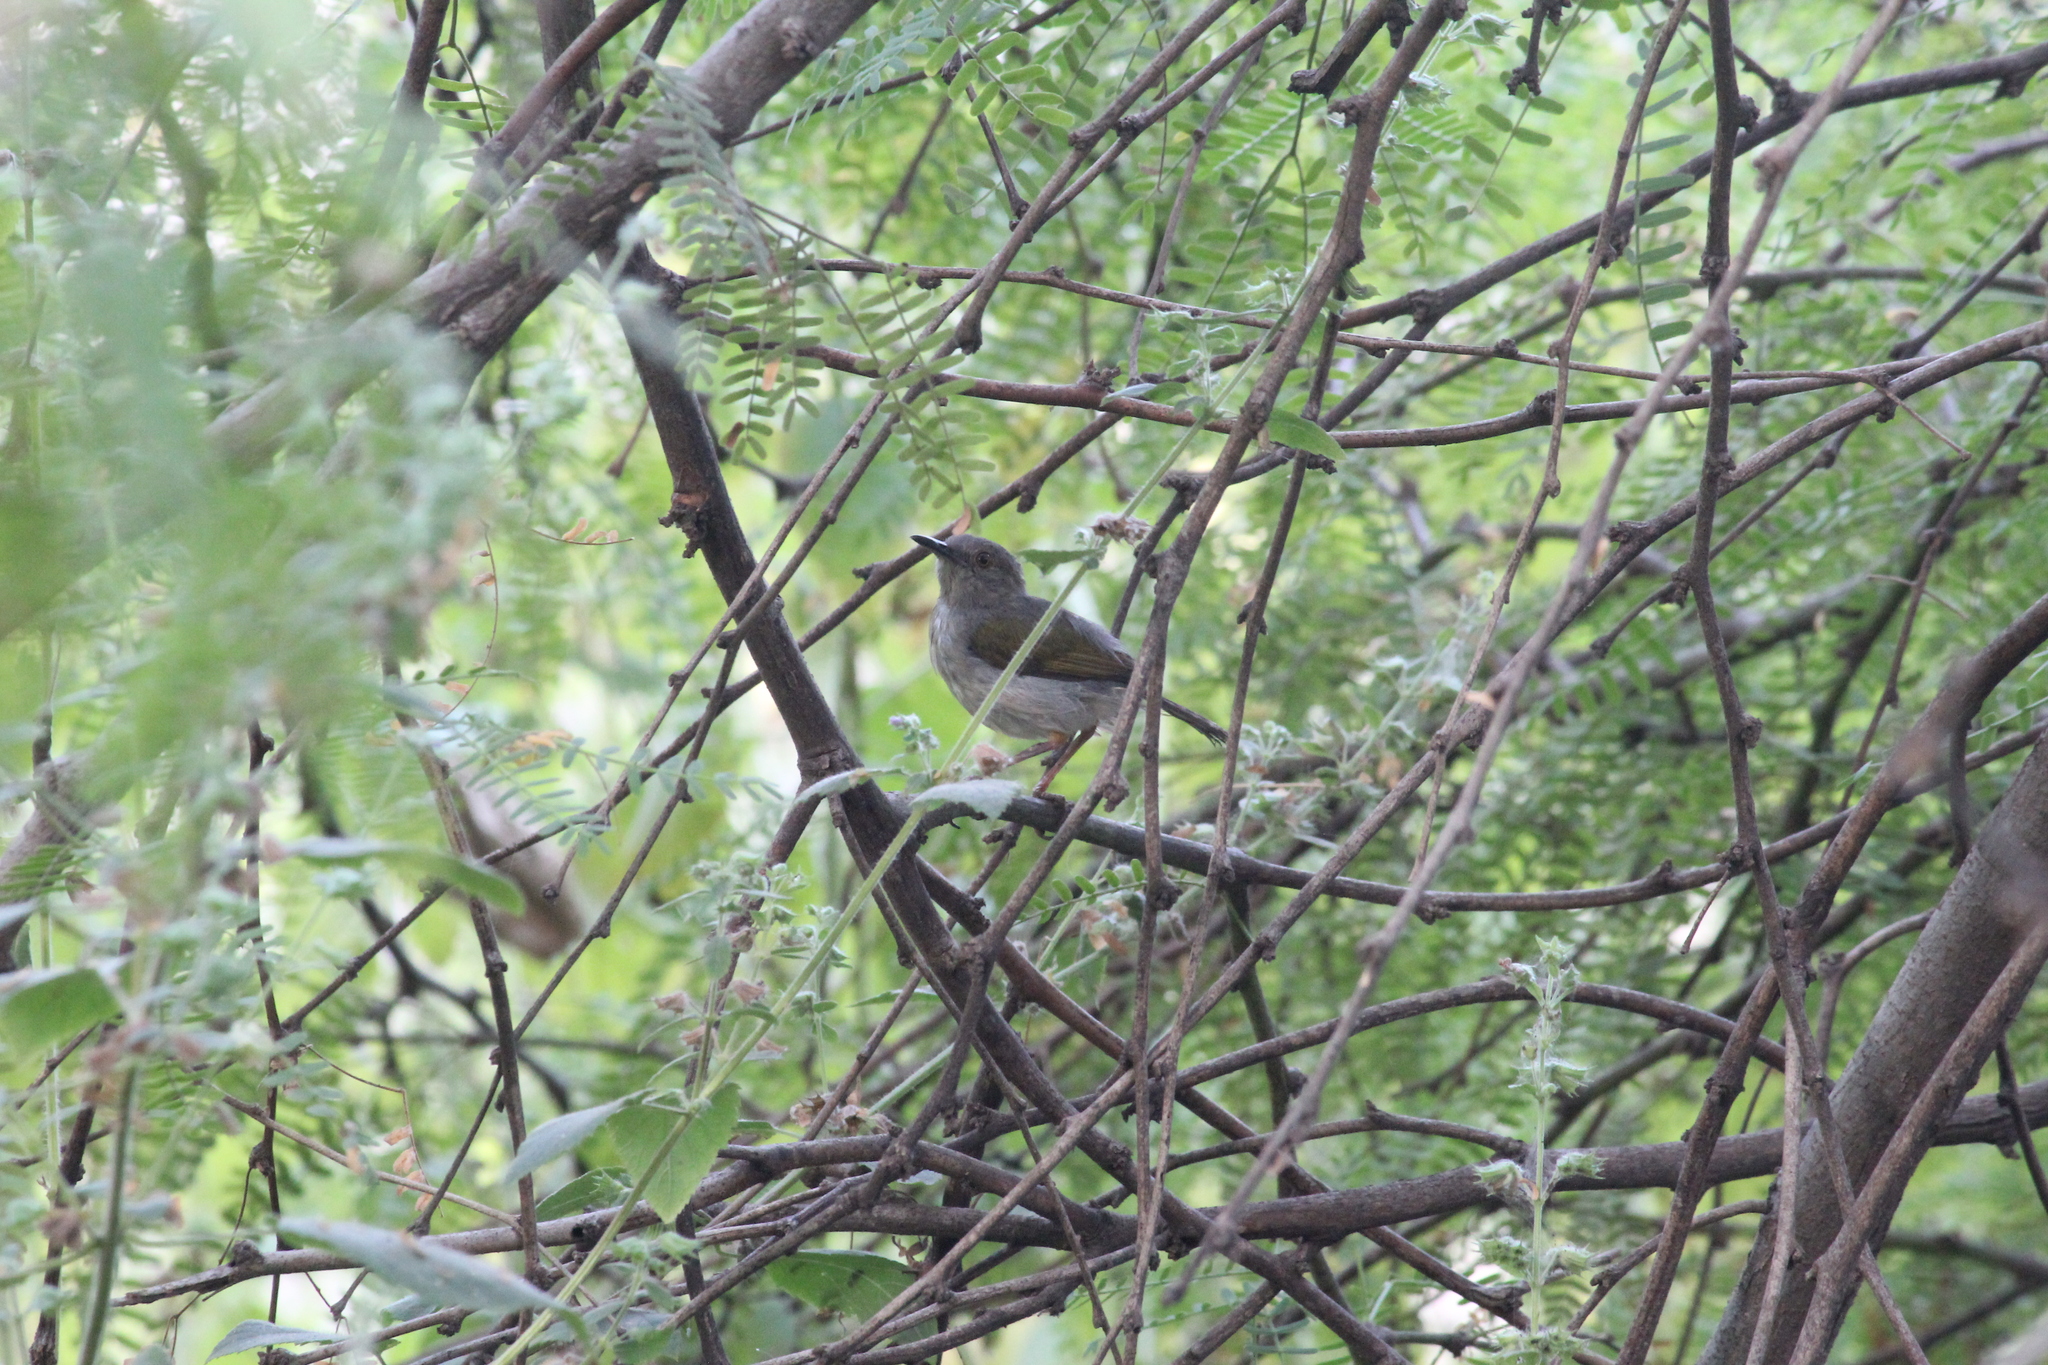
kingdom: Animalia
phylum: Chordata
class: Aves
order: Passeriformes
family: Cisticolidae
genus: Camaroptera
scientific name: Camaroptera brachyura
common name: Green-backed camaroptera
